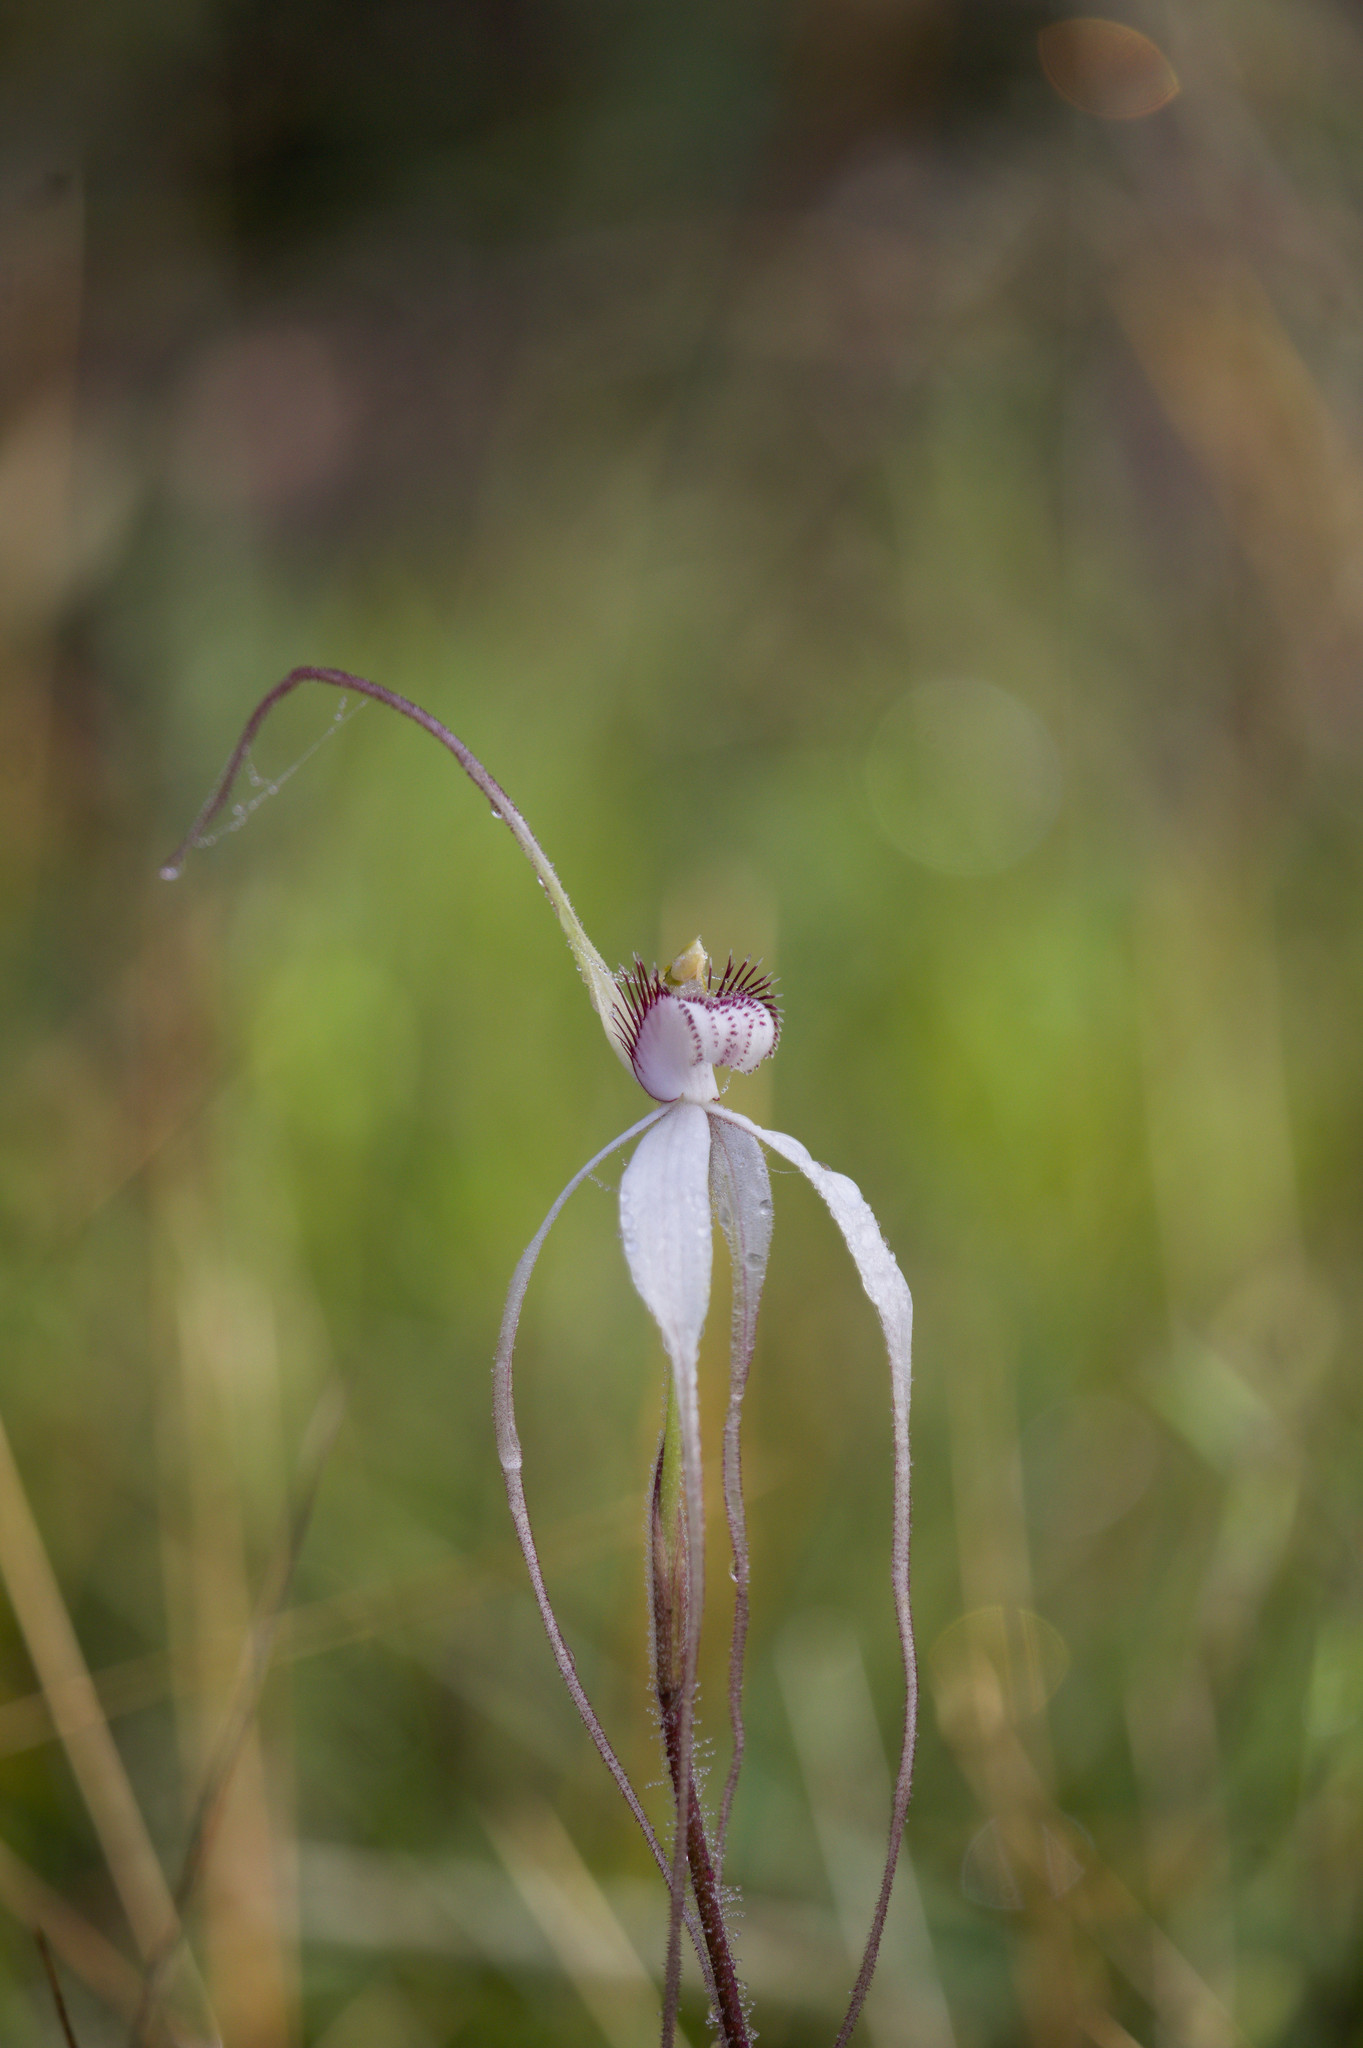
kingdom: Plantae
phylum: Tracheophyta
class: Liliopsida
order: Asparagales
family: Orchidaceae
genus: Caladenia
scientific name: Caladenia longicauda
